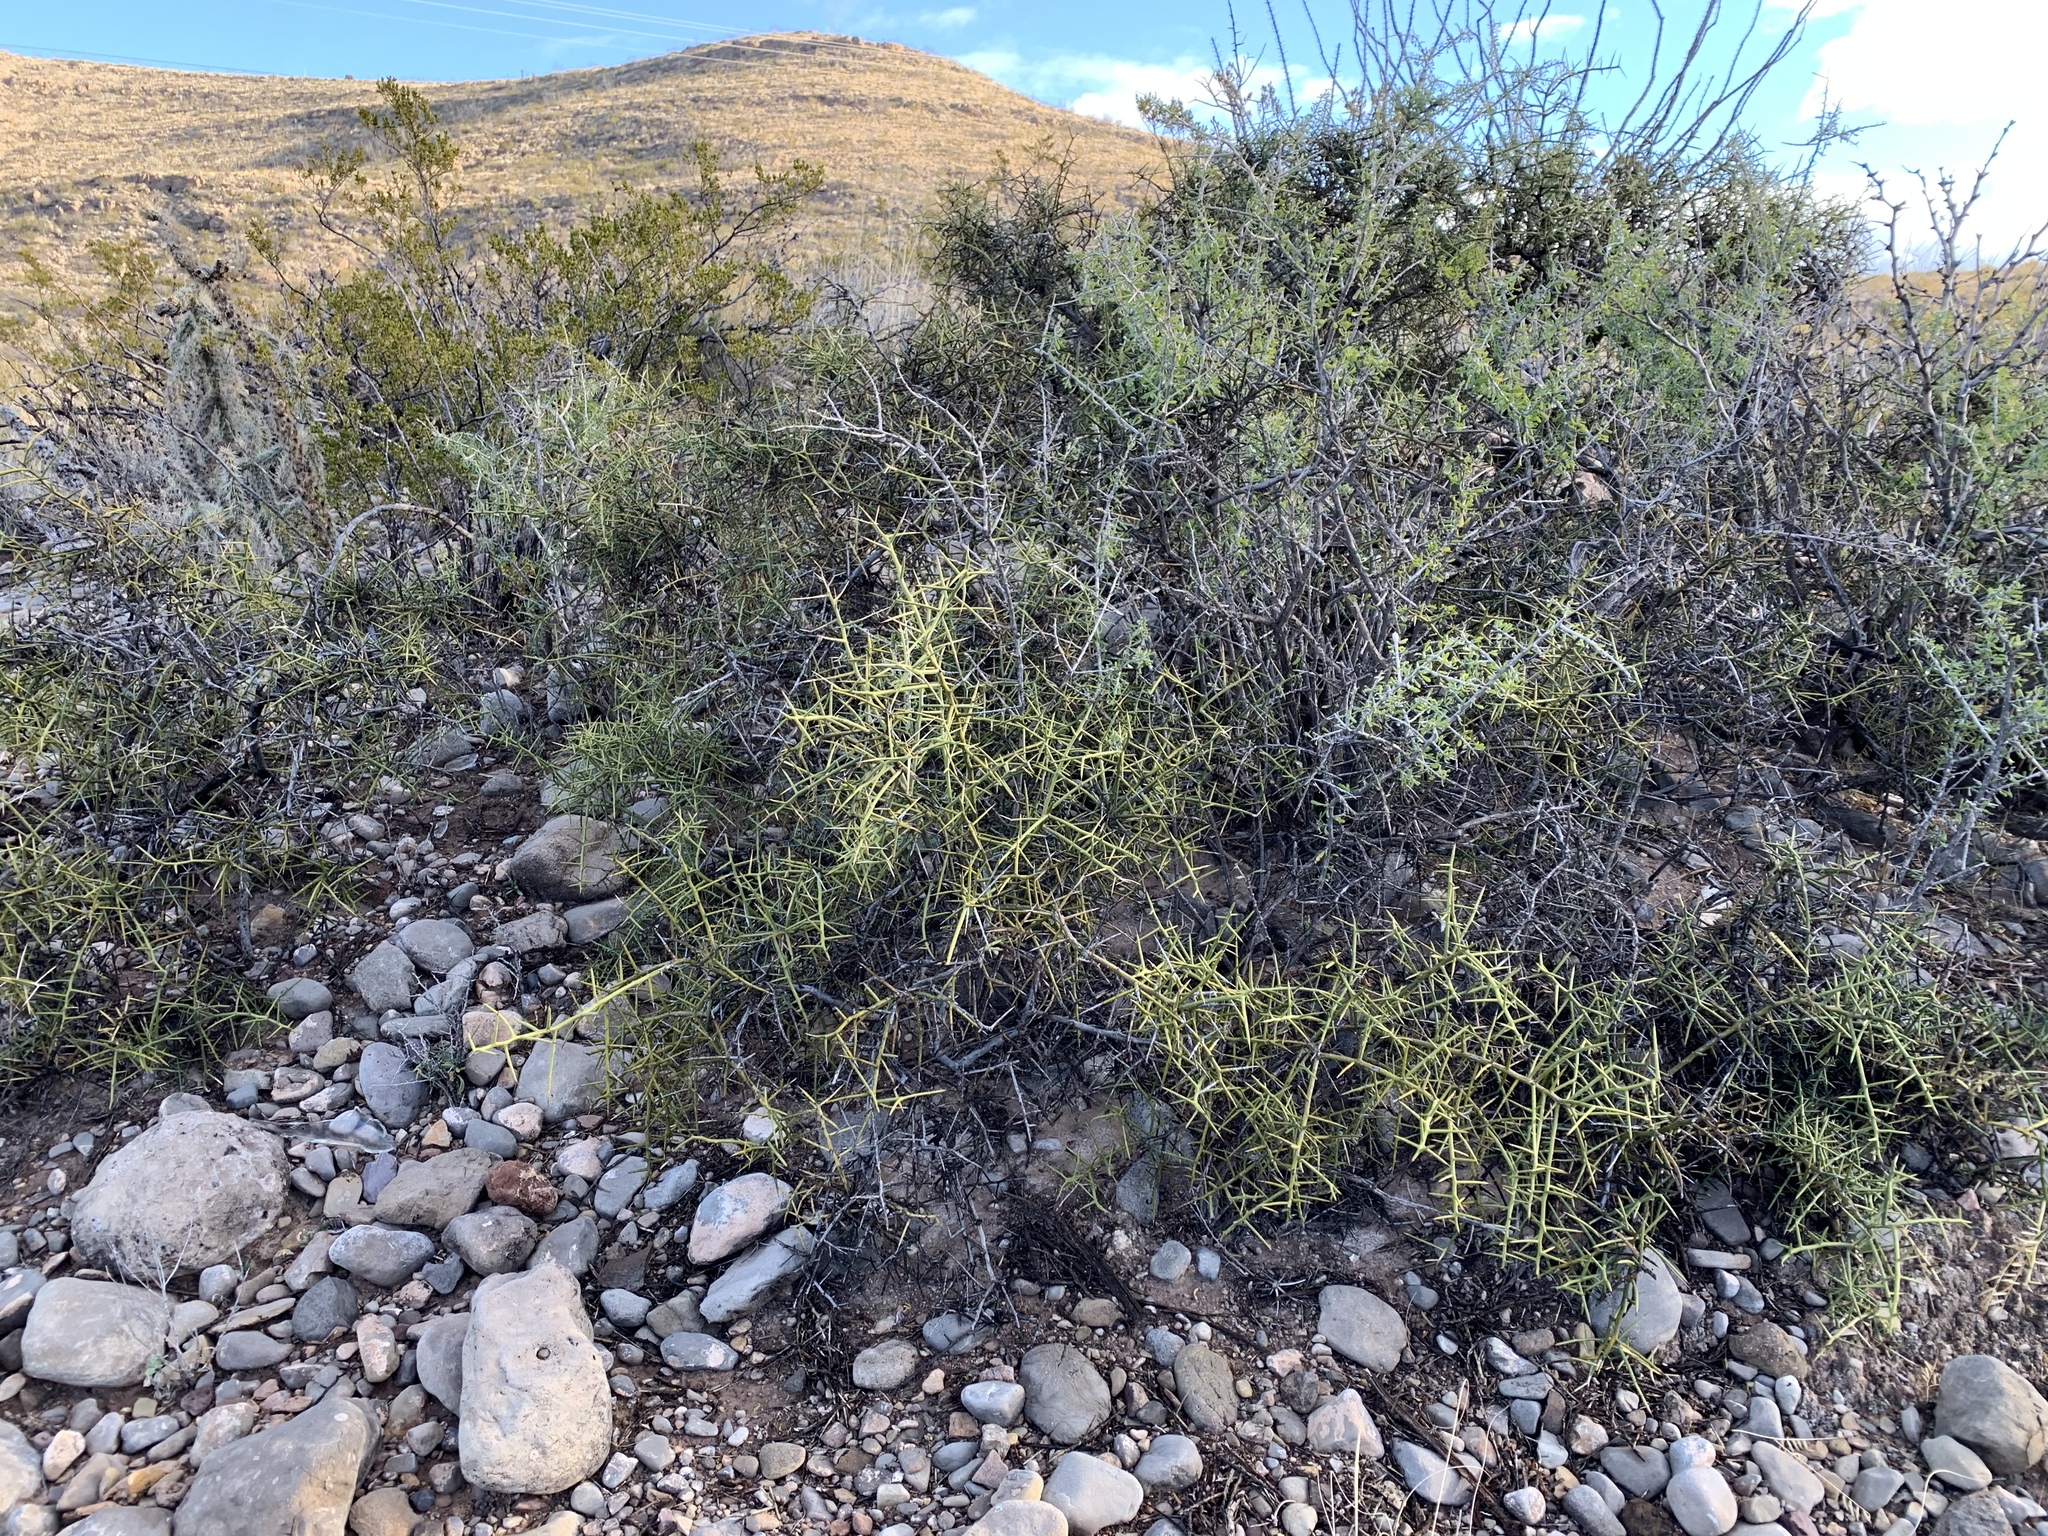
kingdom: Plantae
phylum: Tracheophyta
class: Magnoliopsida
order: Brassicales
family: Koeberliniaceae
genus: Koeberlinia
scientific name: Koeberlinia spinosa
